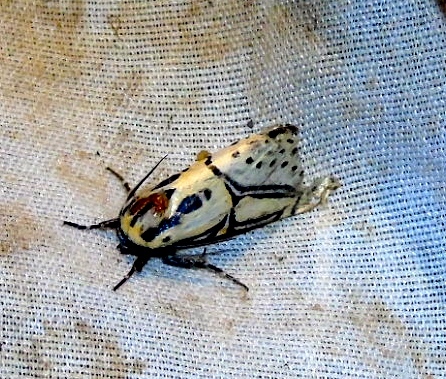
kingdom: Animalia
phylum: Arthropoda
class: Insecta
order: Lepidoptera
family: Erebidae
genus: Diphthera
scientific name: Diphthera festiva
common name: Hieroglyphic moth
